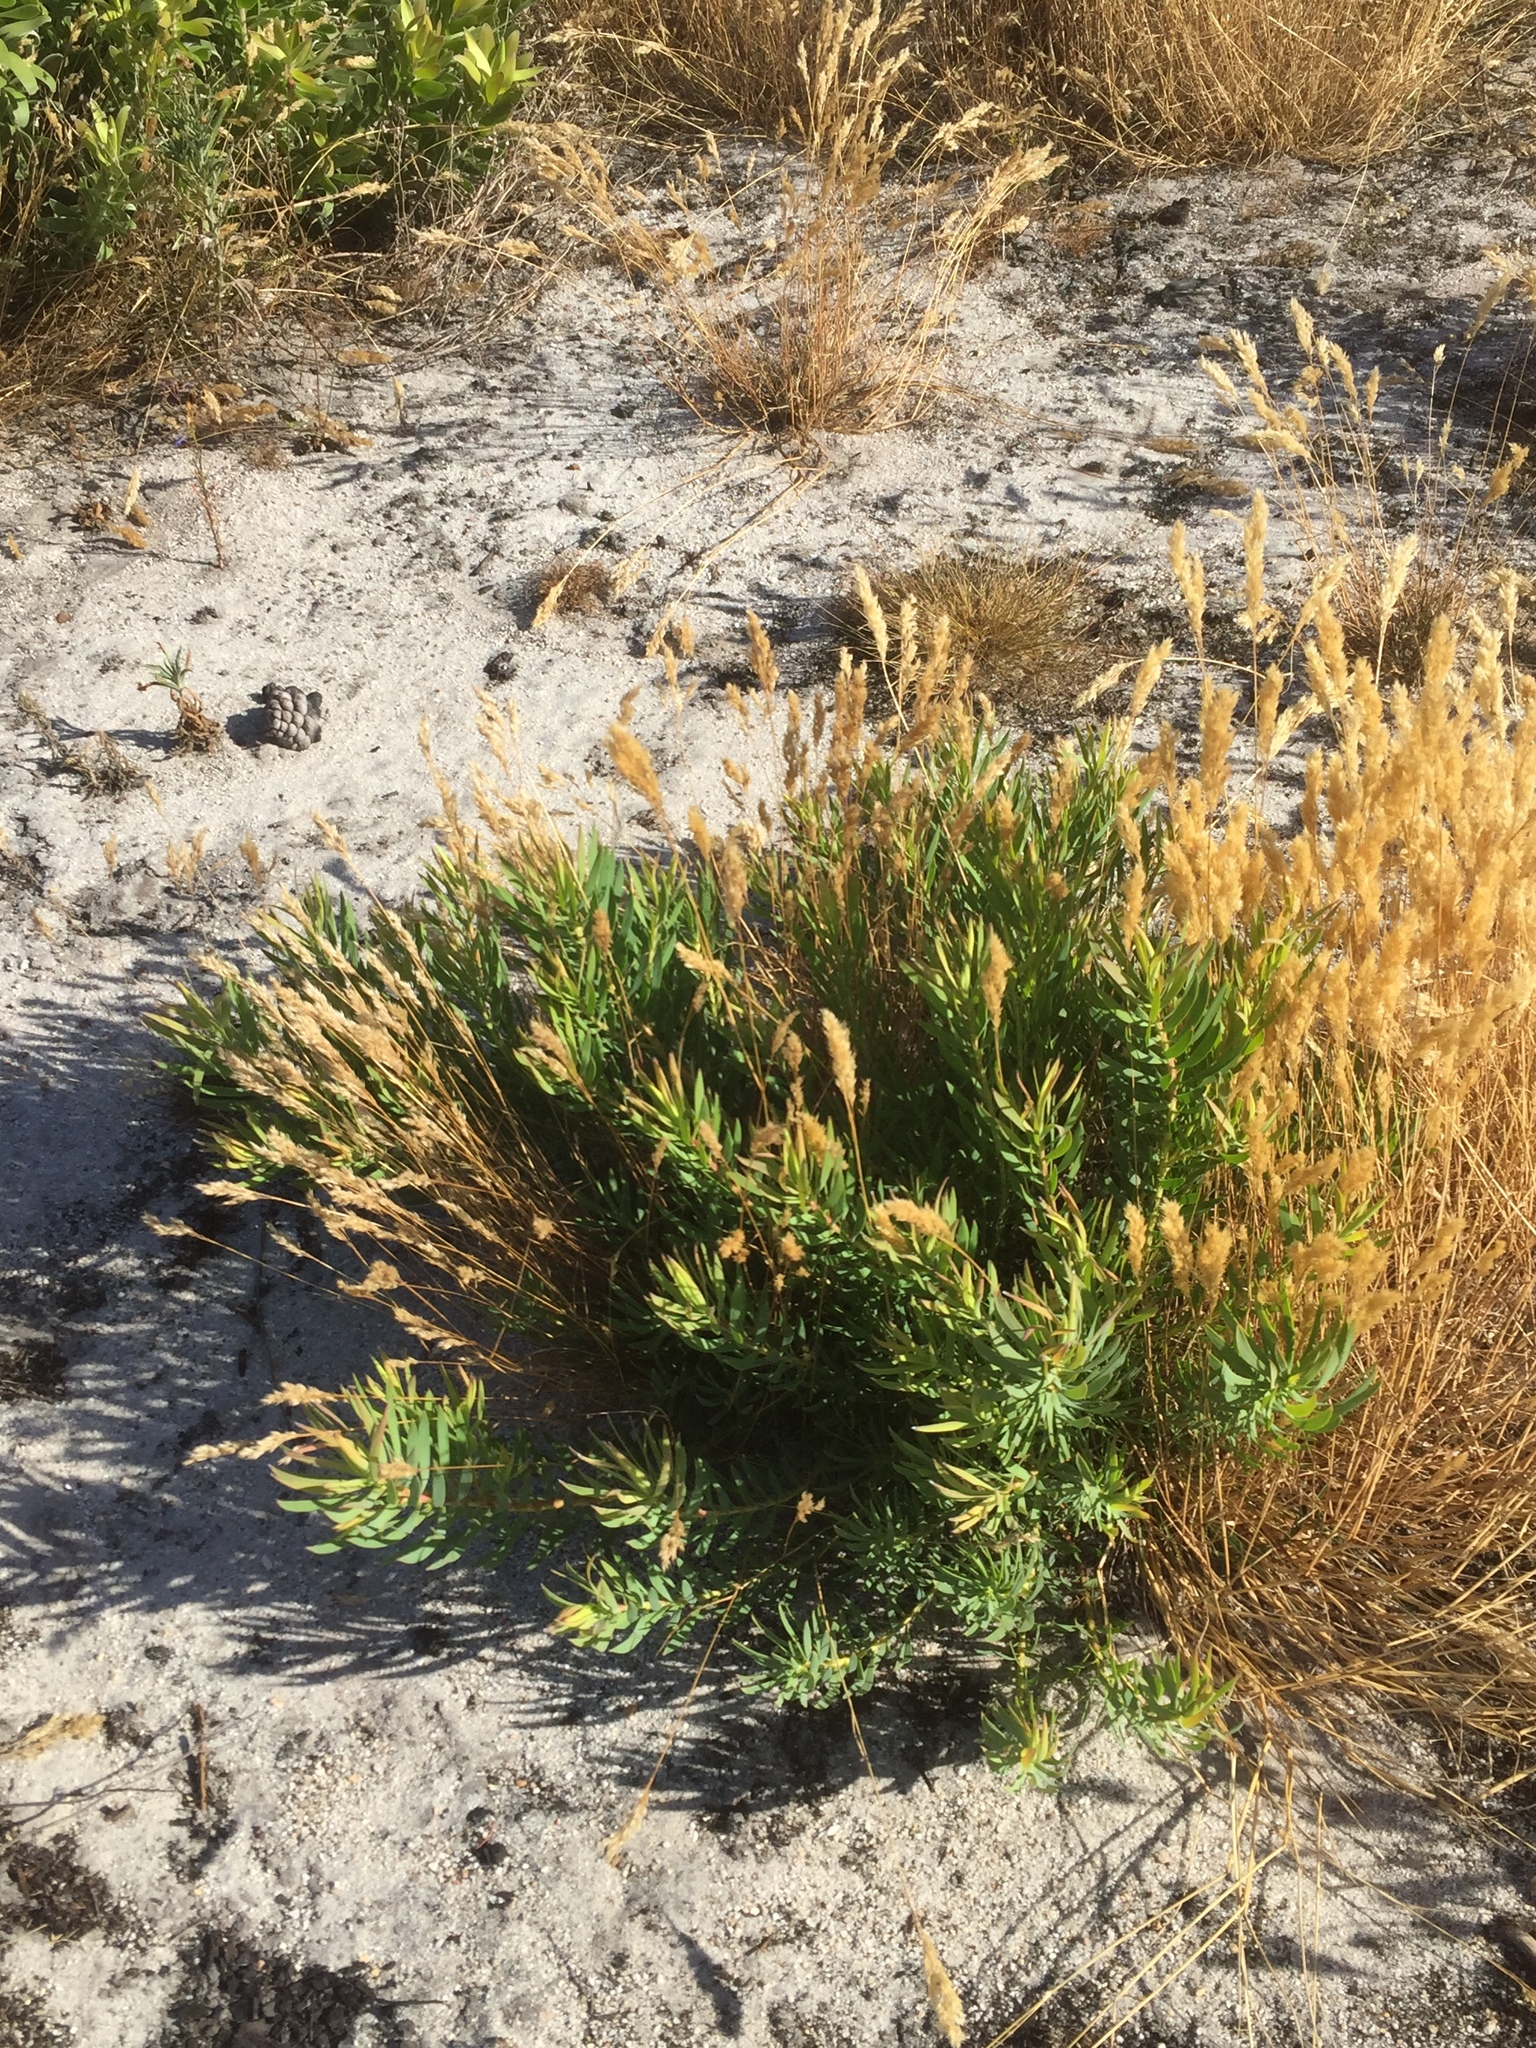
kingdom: Plantae
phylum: Tracheophyta
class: Magnoliopsida
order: Proteales
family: Proteaceae
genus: Leucadendron
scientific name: Leucadendron salignum
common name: Common sunshine conebush
